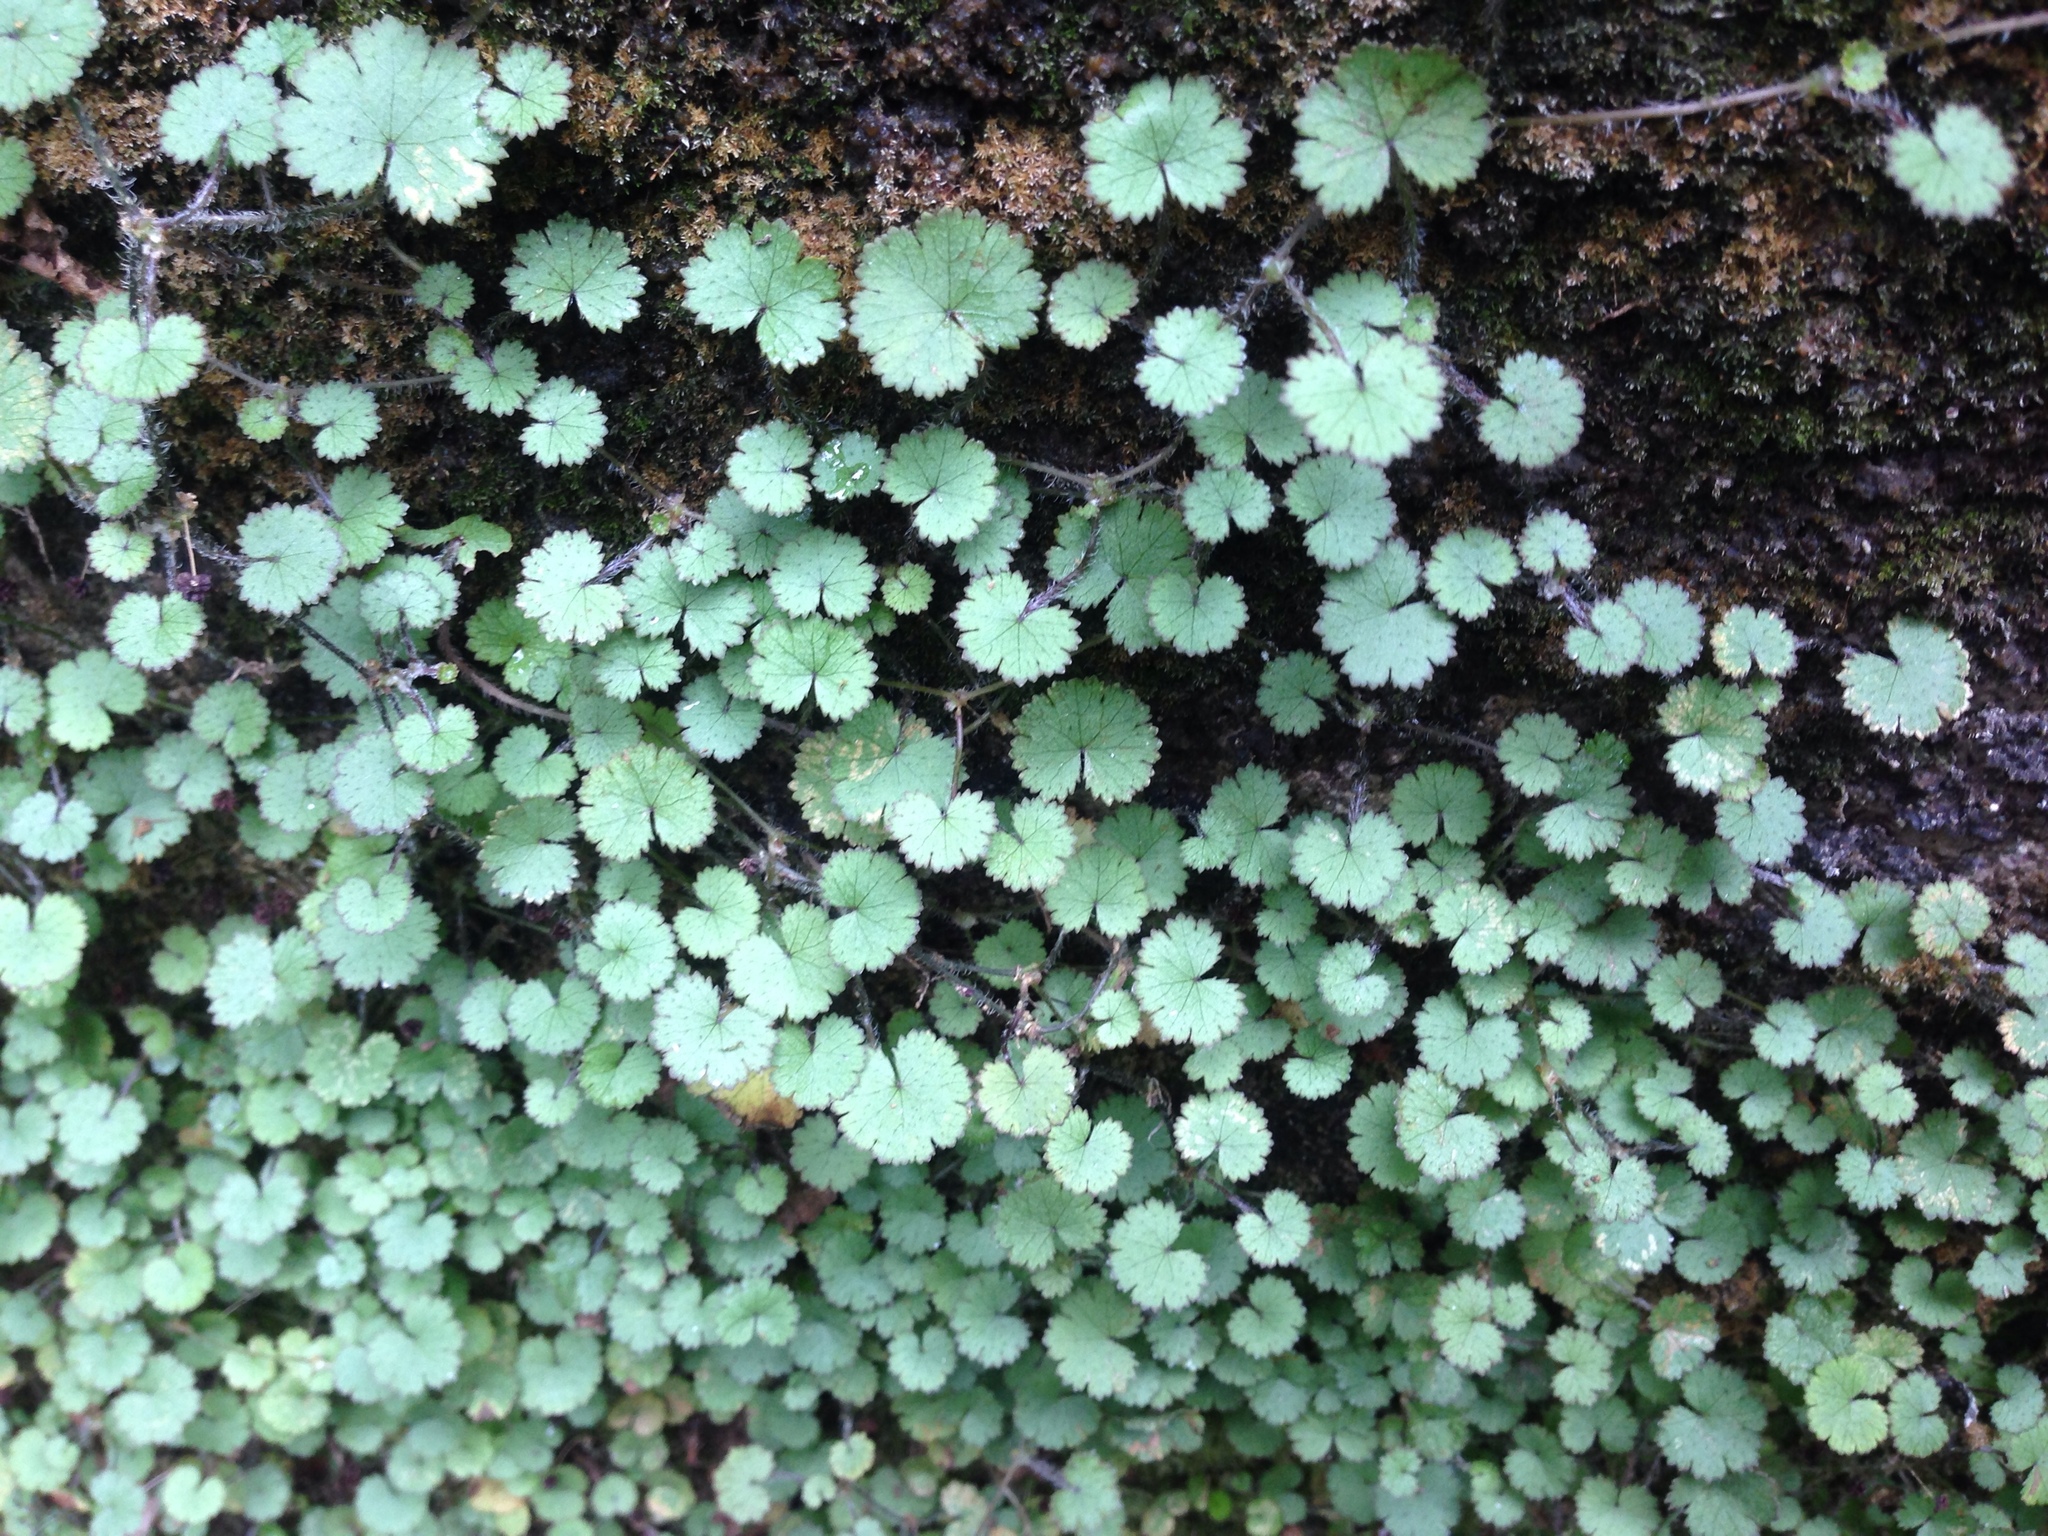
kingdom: Plantae
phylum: Tracheophyta
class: Magnoliopsida
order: Apiales
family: Araliaceae
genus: Hydrocotyle
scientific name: Hydrocotyle moschata
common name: Hairy pennywort
